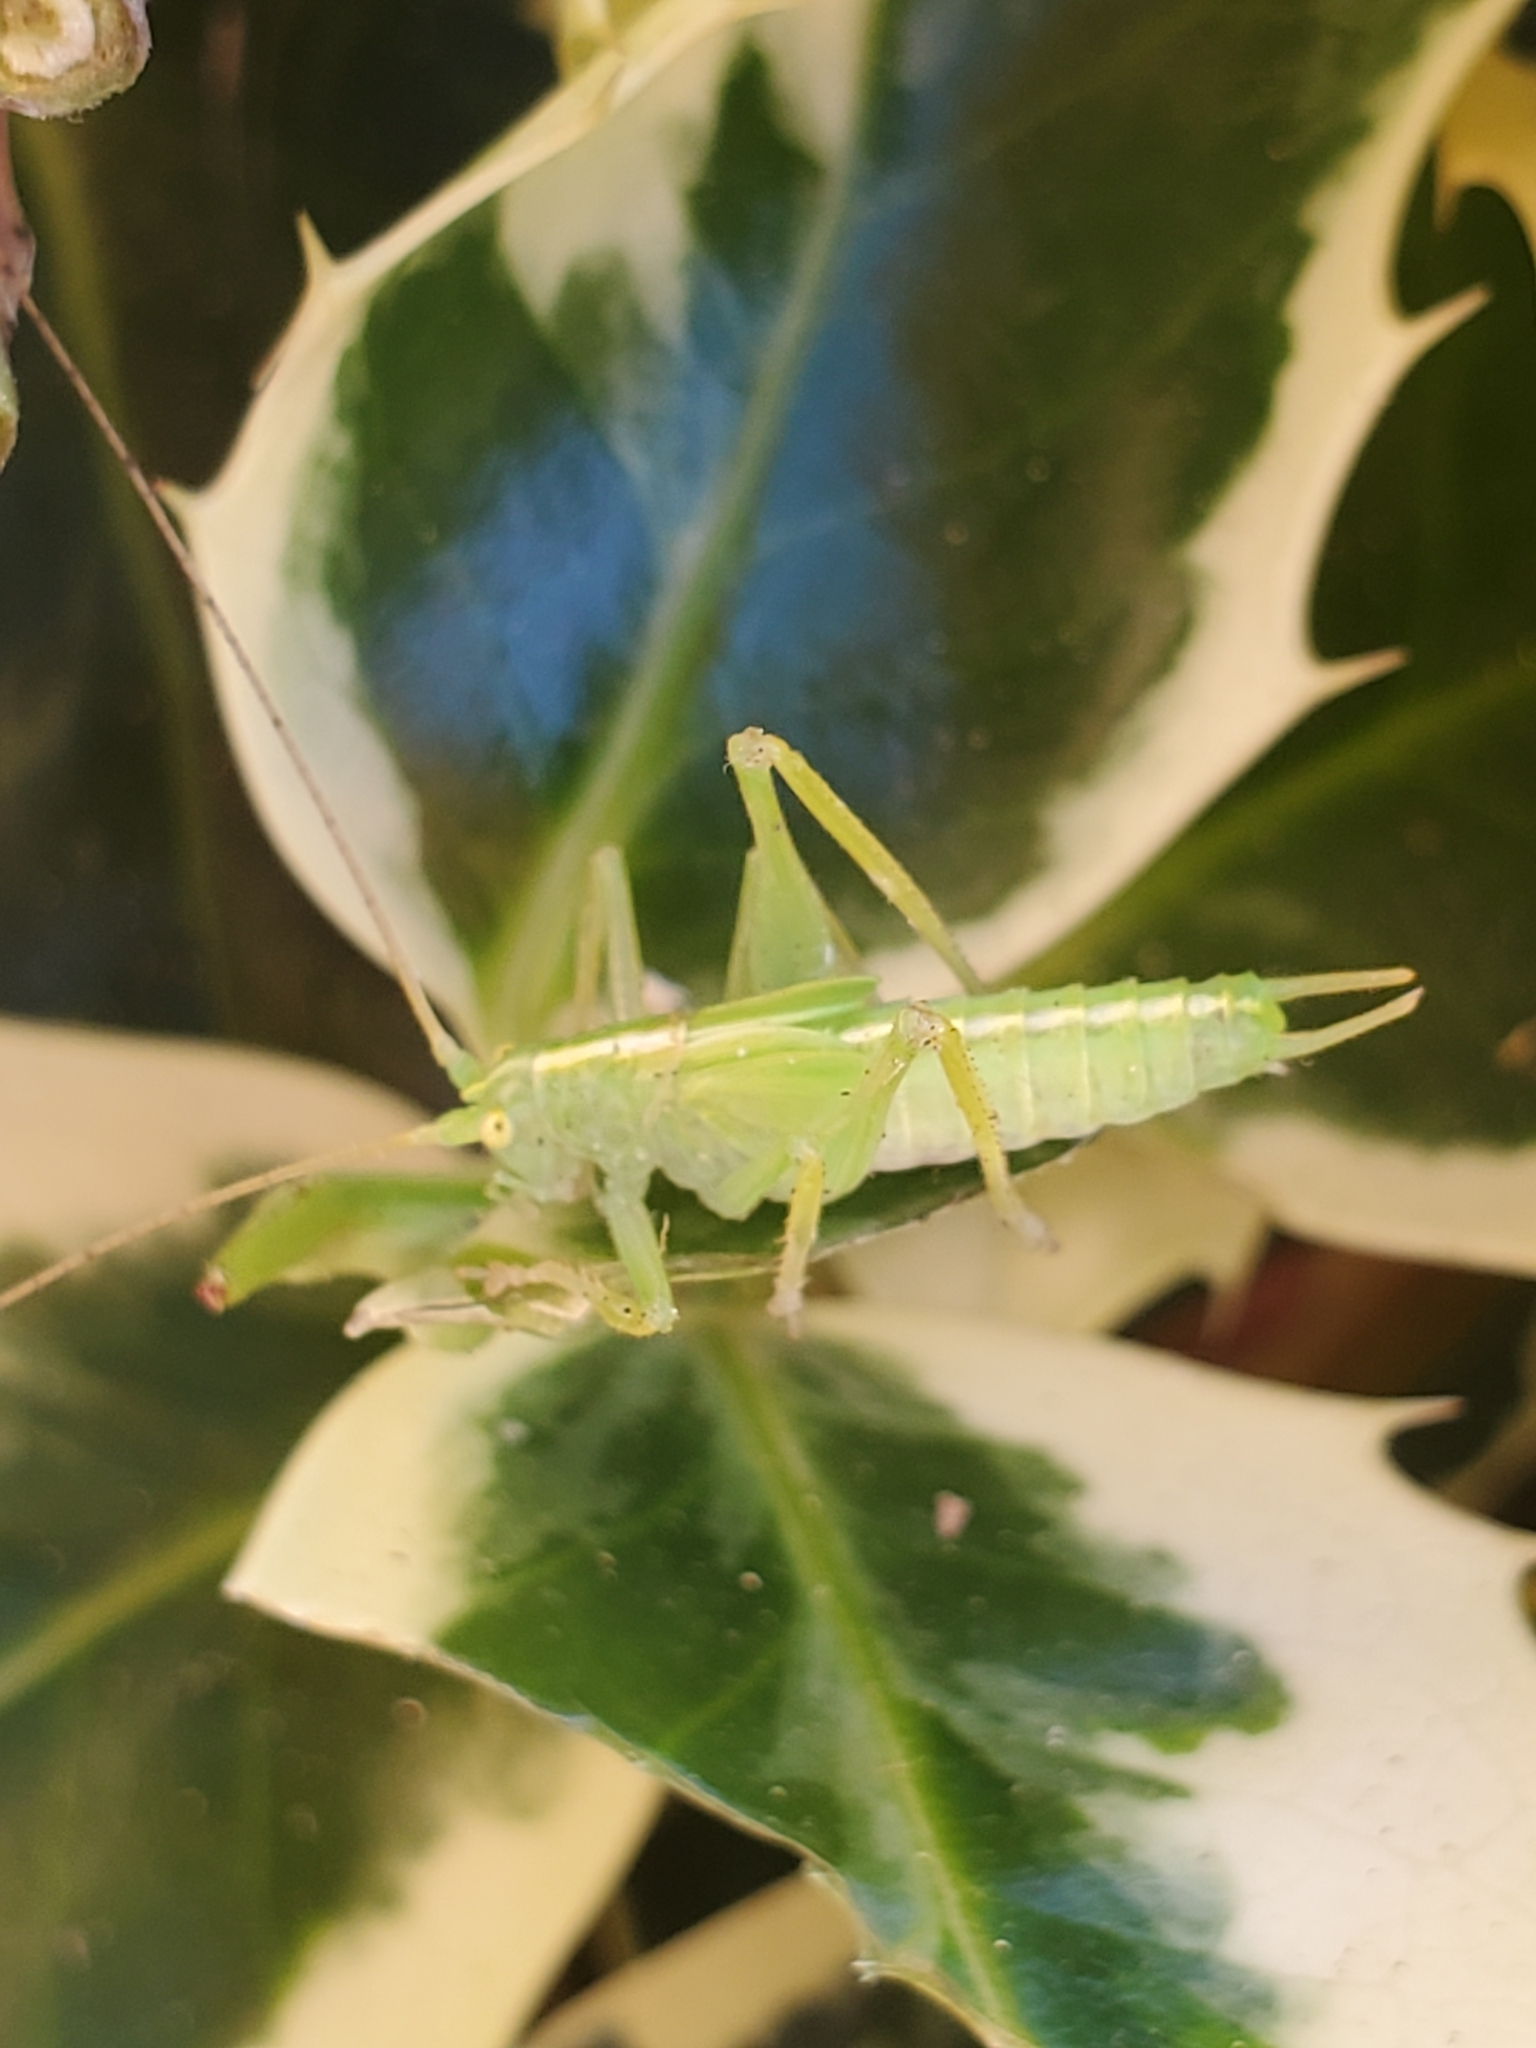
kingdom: Animalia
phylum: Arthropoda
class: Insecta
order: Orthoptera
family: Tettigoniidae
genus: Meconema
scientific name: Meconema thalassinum
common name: Oak bush-cricket
